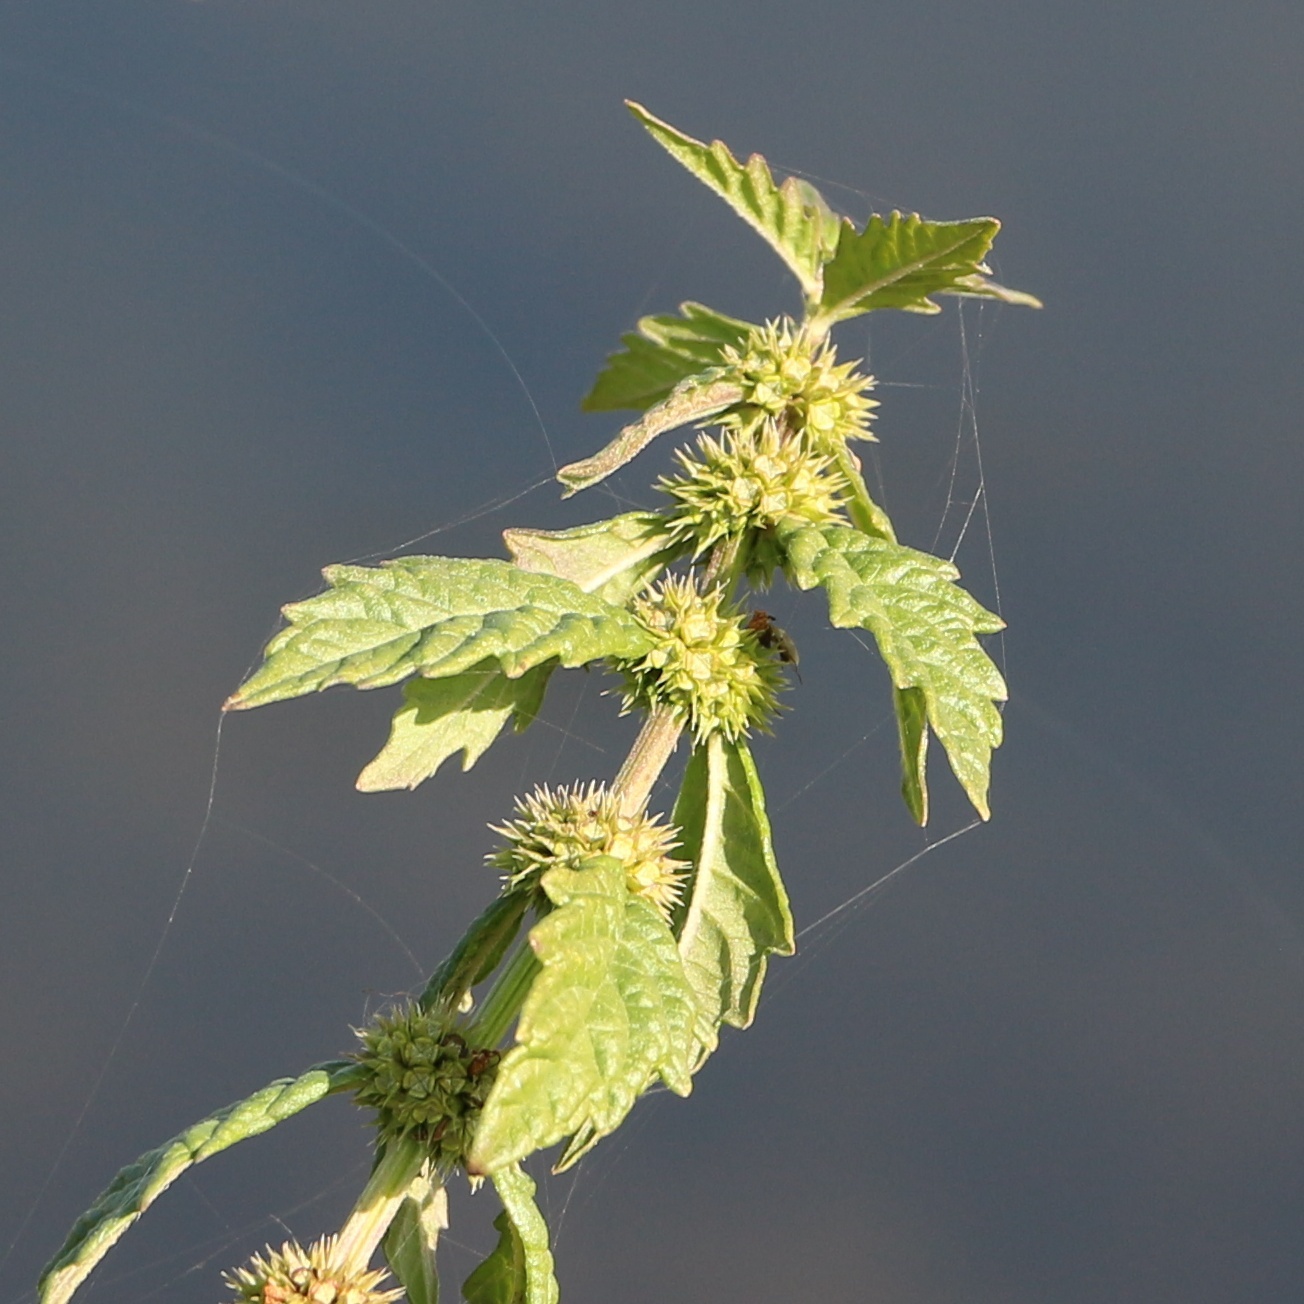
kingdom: Plantae
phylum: Tracheophyta
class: Magnoliopsida
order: Lamiales
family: Lamiaceae
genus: Lycopus
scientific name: Lycopus europaeus
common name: European bugleweed
